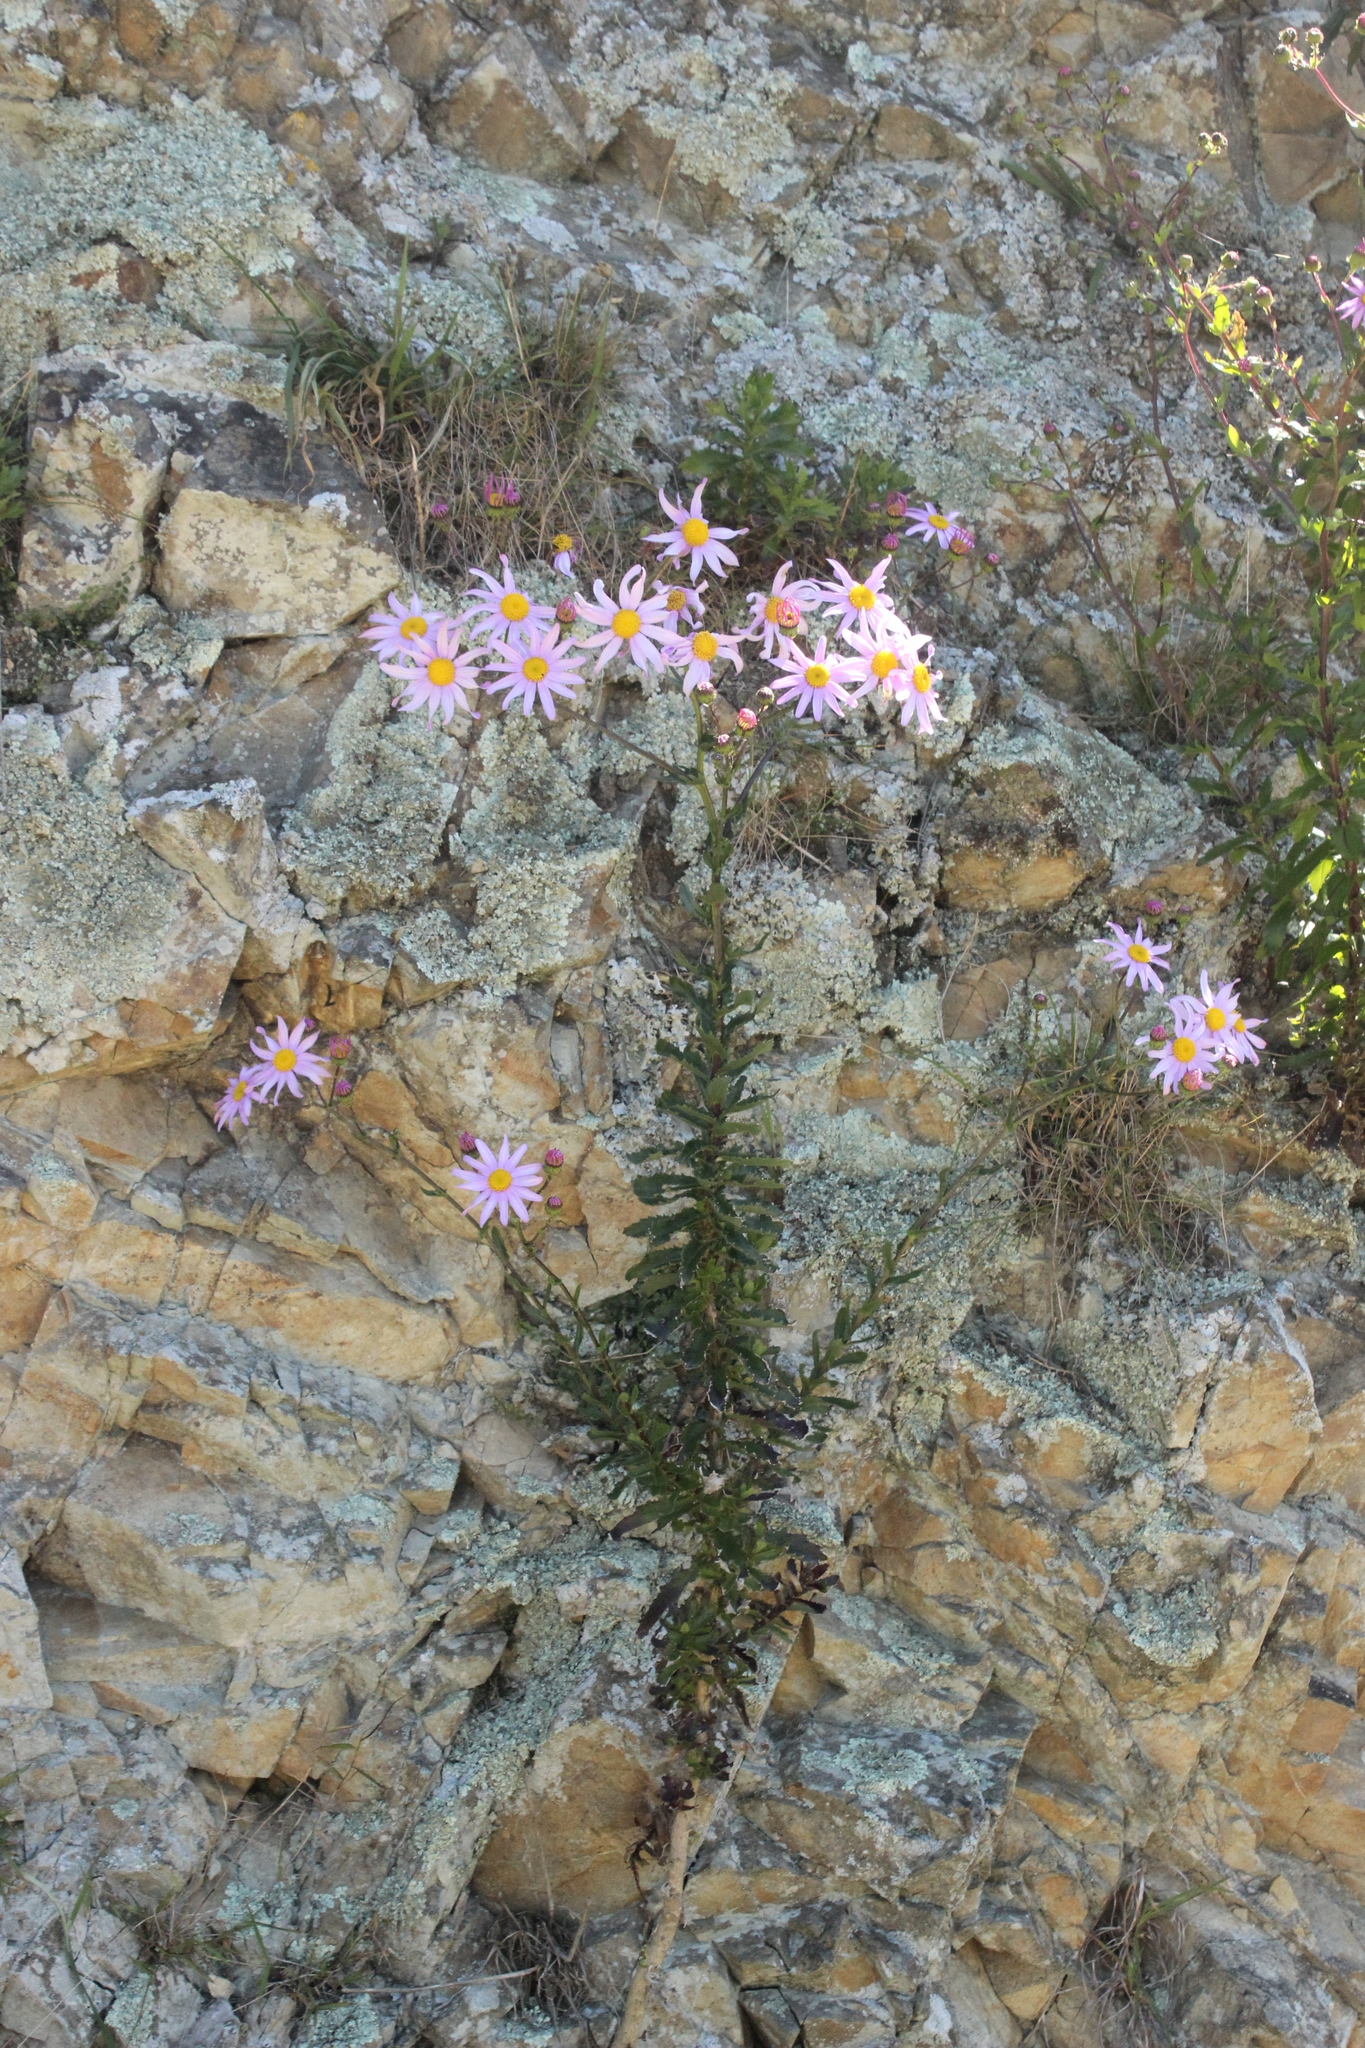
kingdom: Plantae
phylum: Tracheophyta
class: Magnoliopsida
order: Asterales
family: Asteraceae
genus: Senecio
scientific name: Senecio glastifolius
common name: Woad-leaved ragwort
